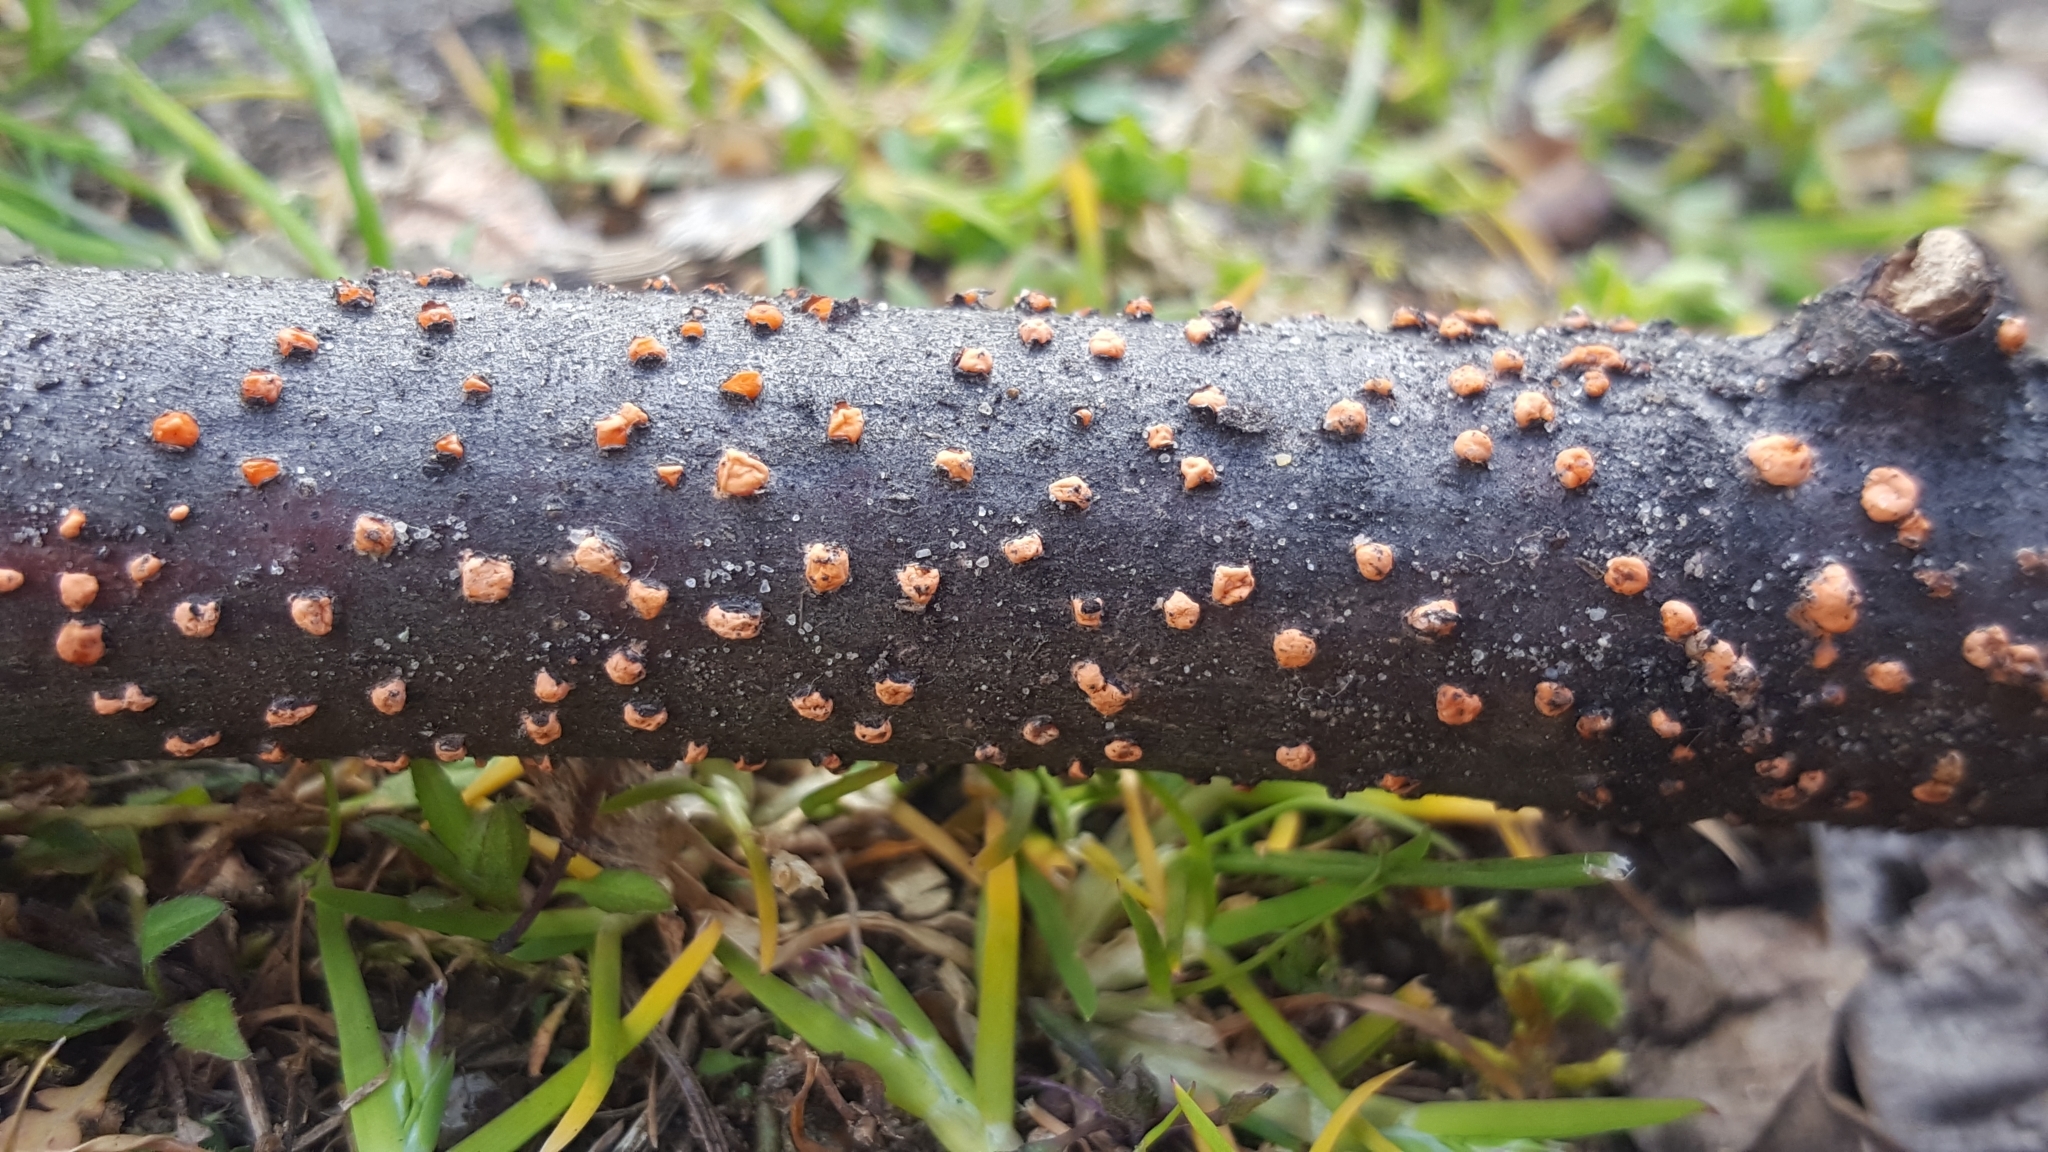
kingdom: Fungi
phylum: Ascomycota
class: Sordariomycetes
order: Hypocreales
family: Nectriaceae
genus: Nectria
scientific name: Nectria cinnabarina
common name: Coral spot
